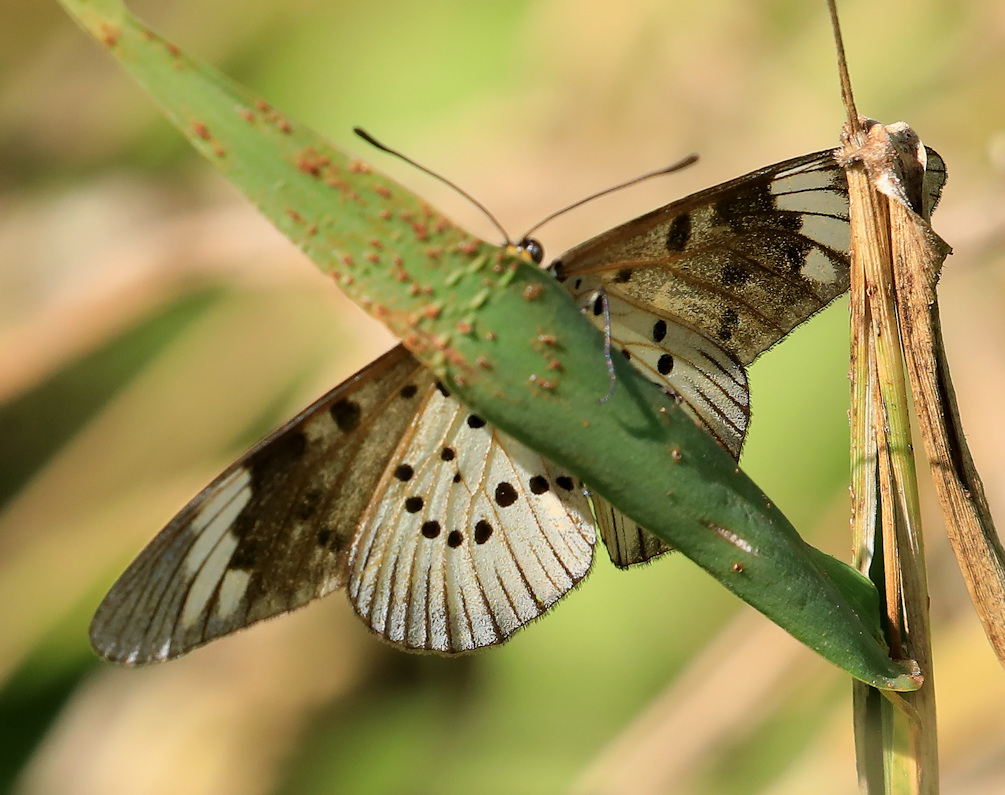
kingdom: Animalia
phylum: Arthropoda
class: Insecta
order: Lepidoptera
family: Nymphalidae
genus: Acraea
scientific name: Acraea Telchinia encedon
